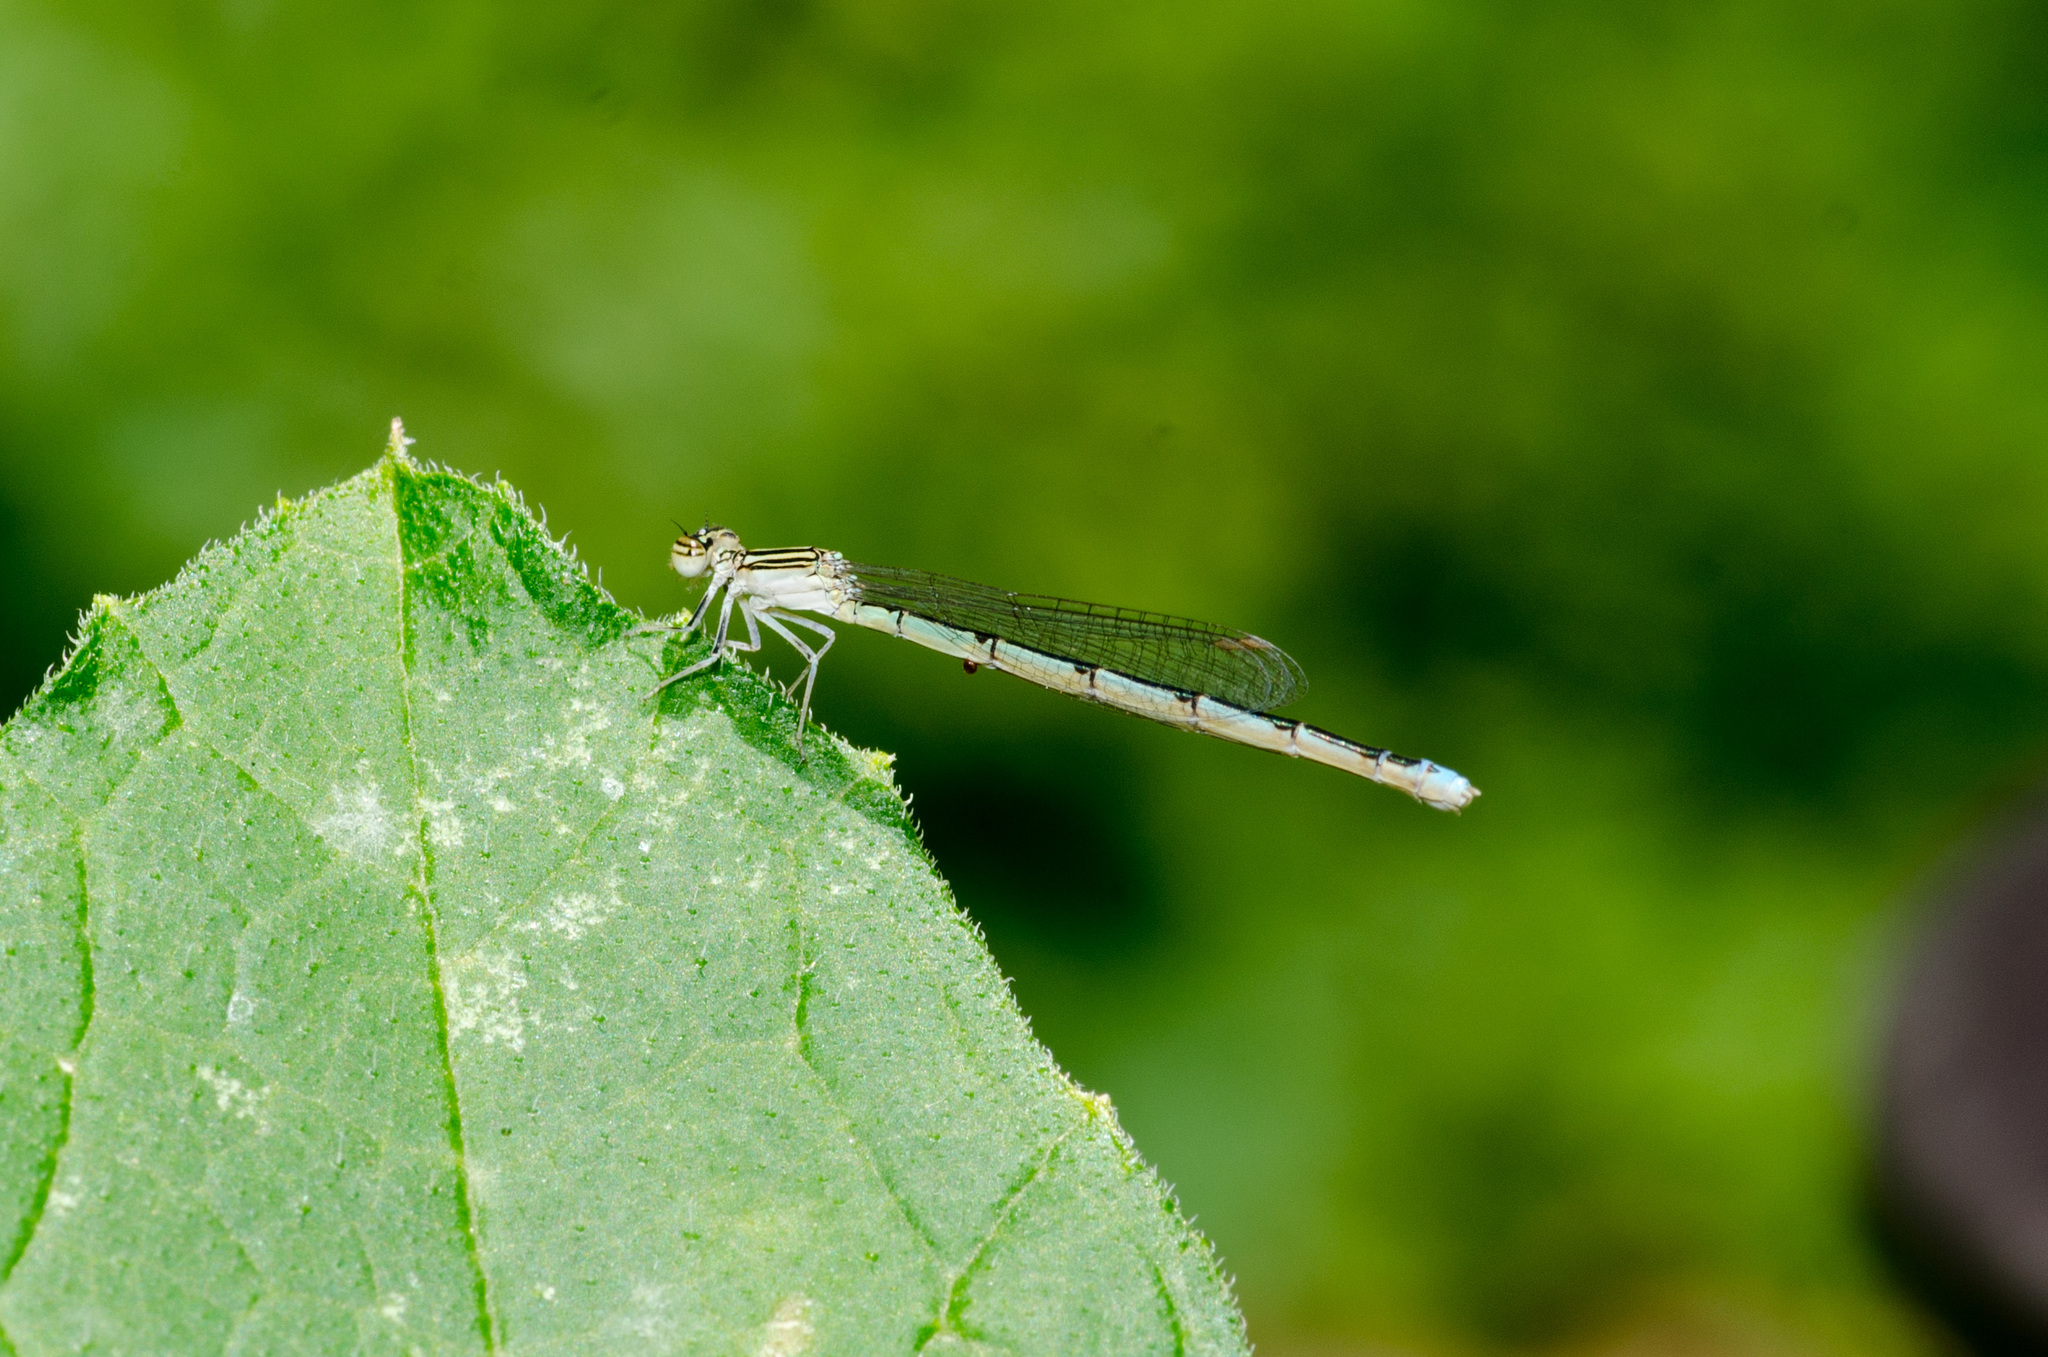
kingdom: Animalia
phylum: Arthropoda
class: Insecta
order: Odonata
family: Coenagrionidae
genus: Enallagma
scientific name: Enallagma basidens
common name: Double-striped bluet
